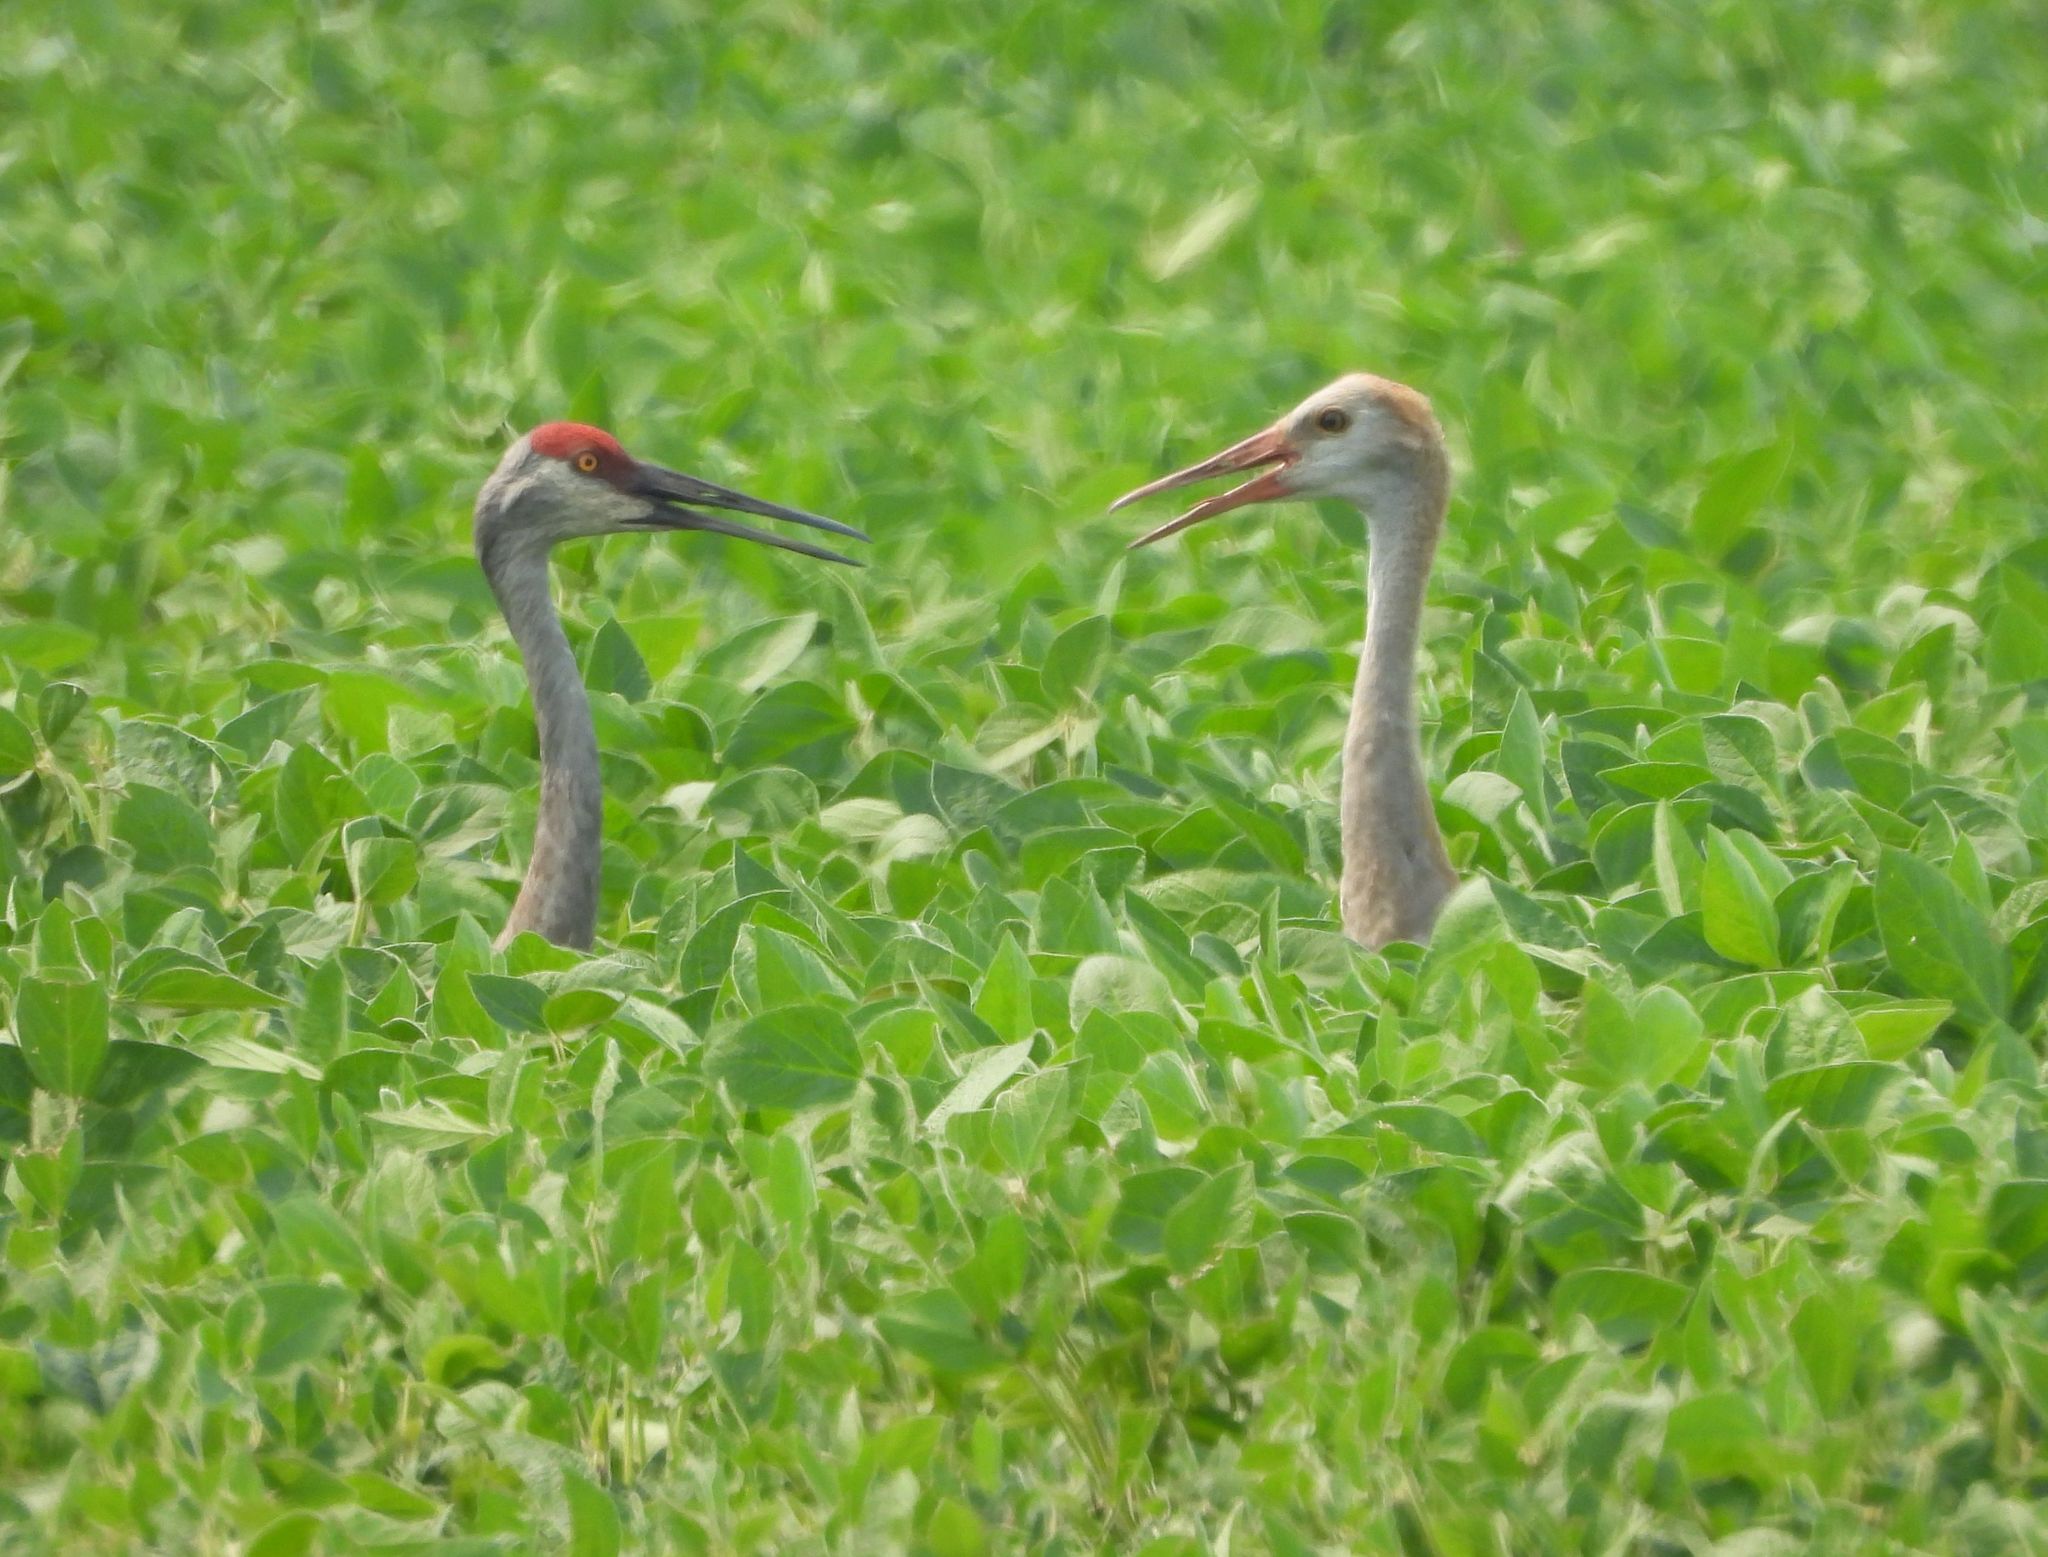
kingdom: Animalia
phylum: Chordata
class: Aves
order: Gruiformes
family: Gruidae
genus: Grus
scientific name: Grus canadensis
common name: Sandhill crane
